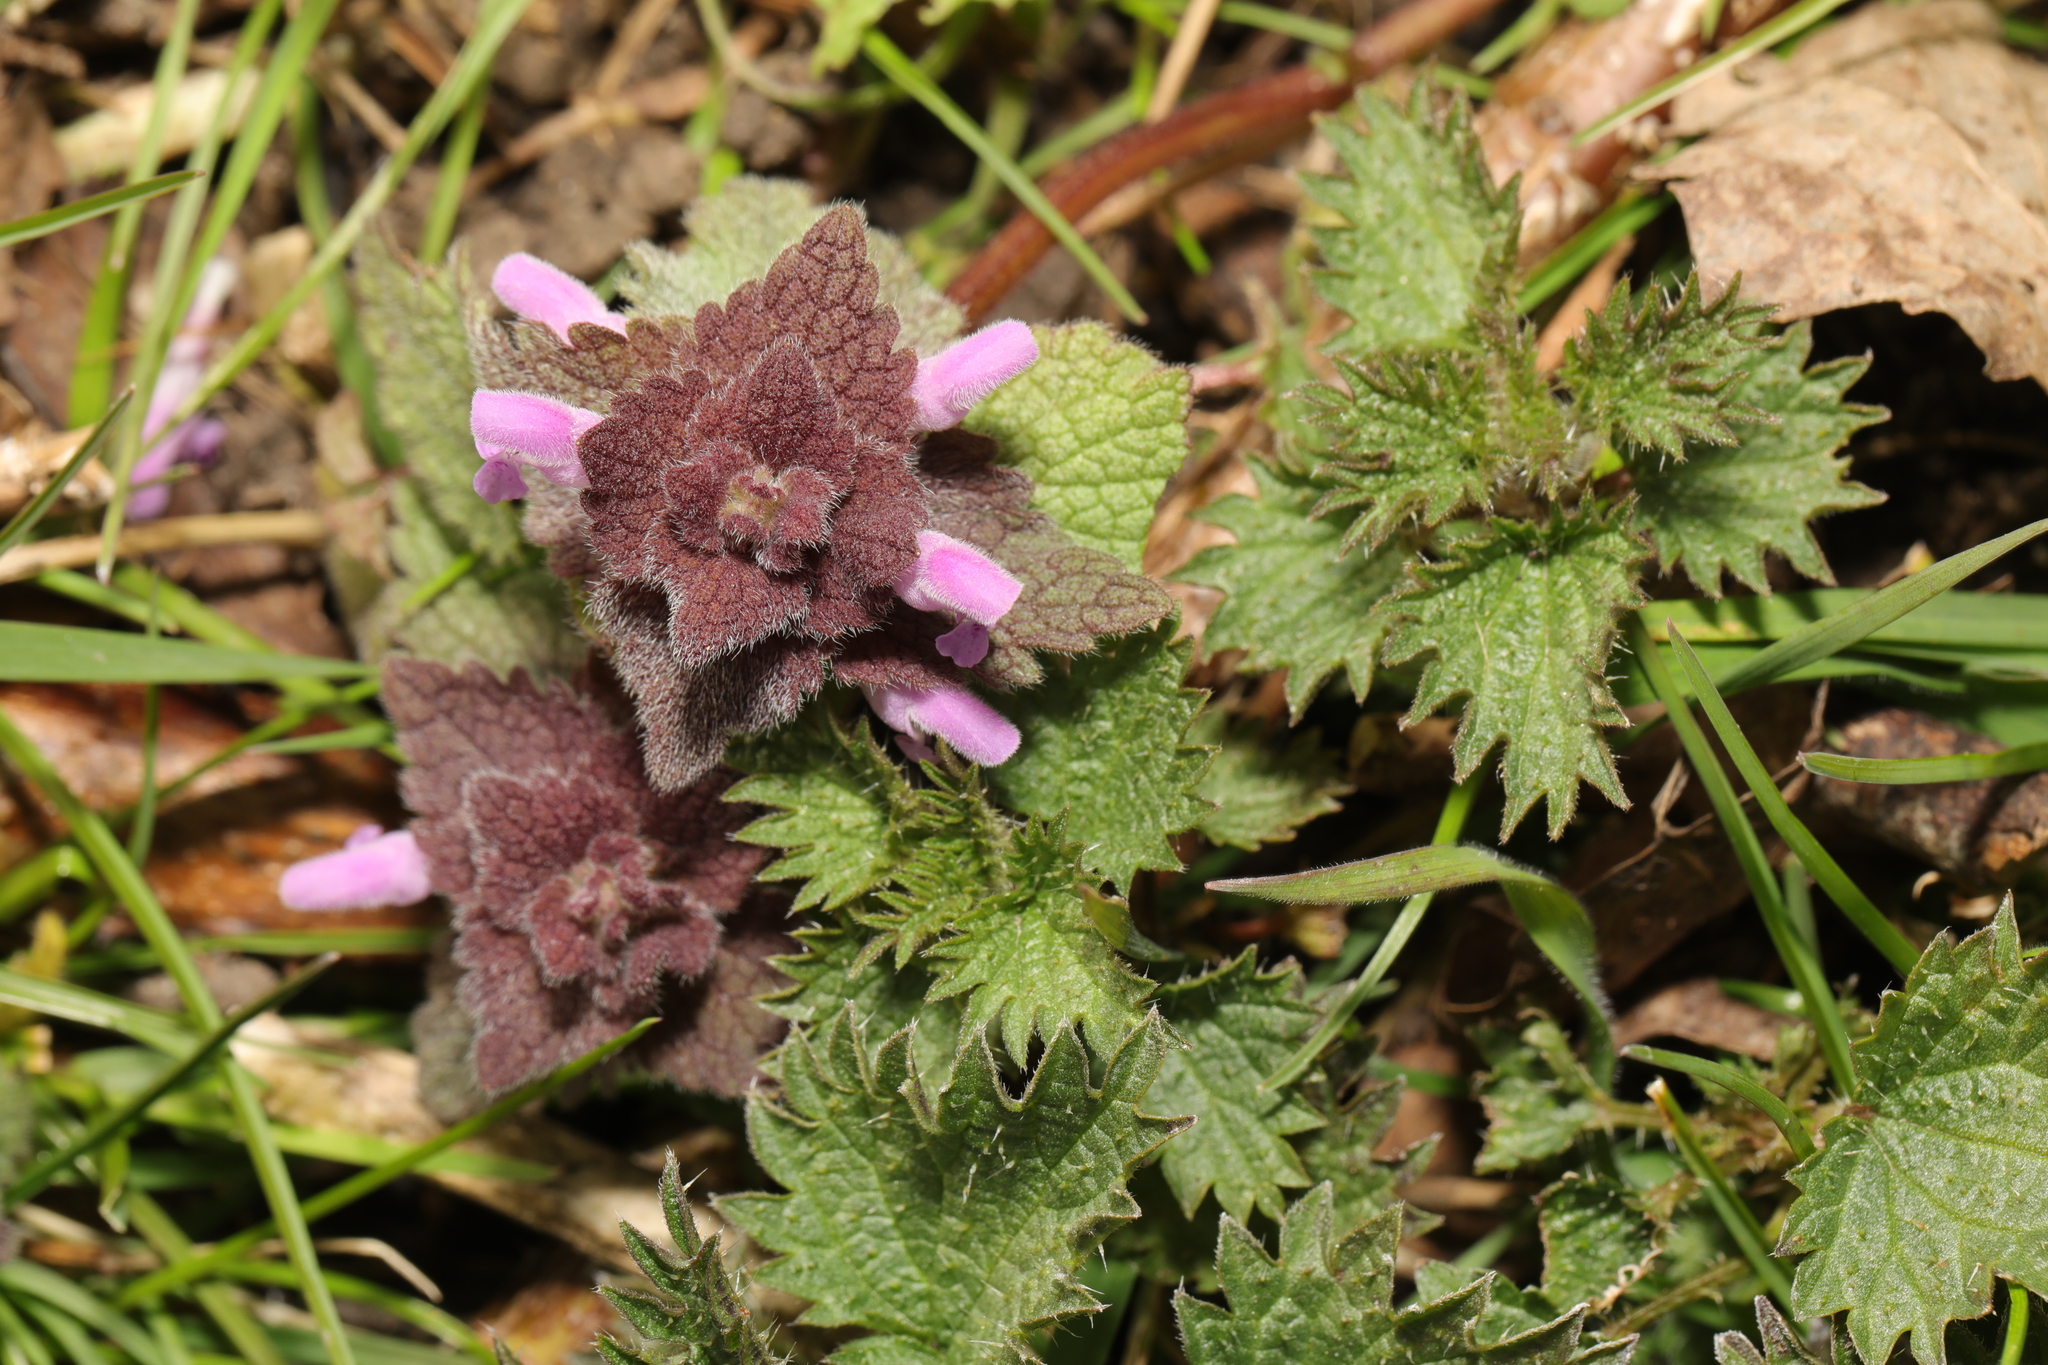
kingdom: Plantae
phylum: Tracheophyta
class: Magnoliopsida
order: Lamiales
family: Lamiaceae
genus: Lamium
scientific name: Lamium purpureum
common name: Red dead-nettle
